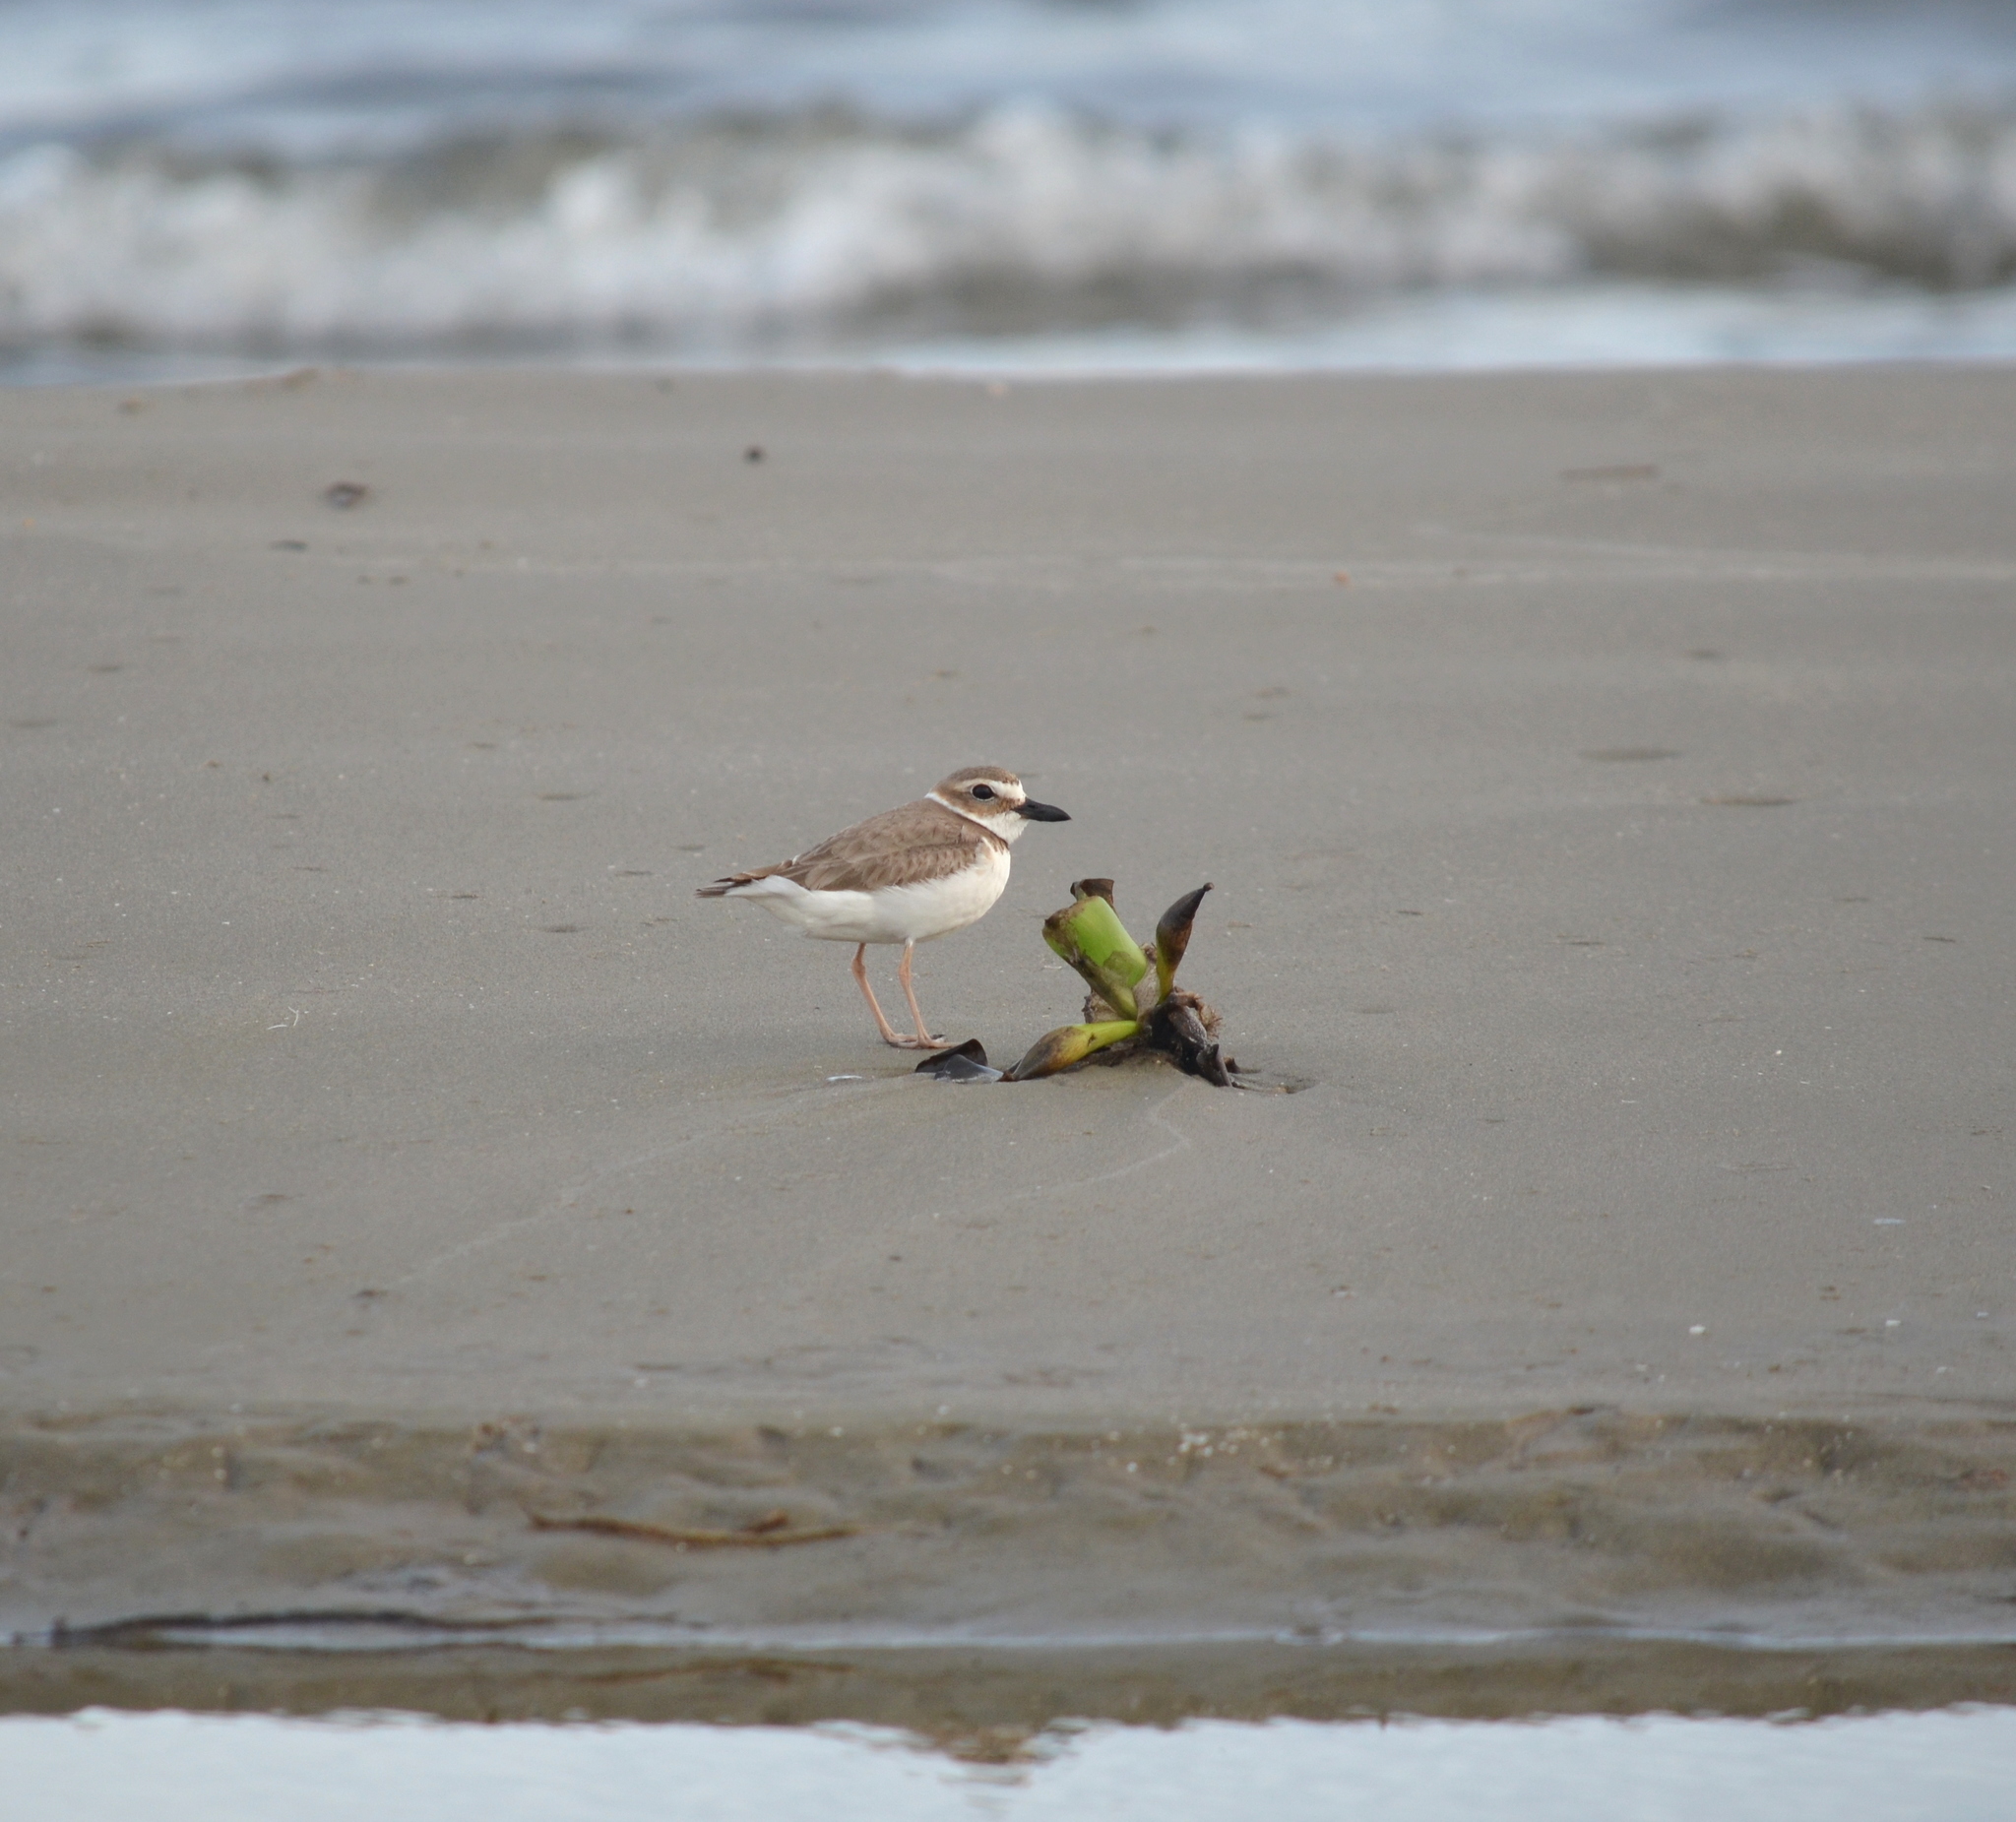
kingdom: Animalia
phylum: Chordata
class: Aves
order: Charadriiformes
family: Charadriidae
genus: Anarhynchus
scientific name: Anarhynchus
